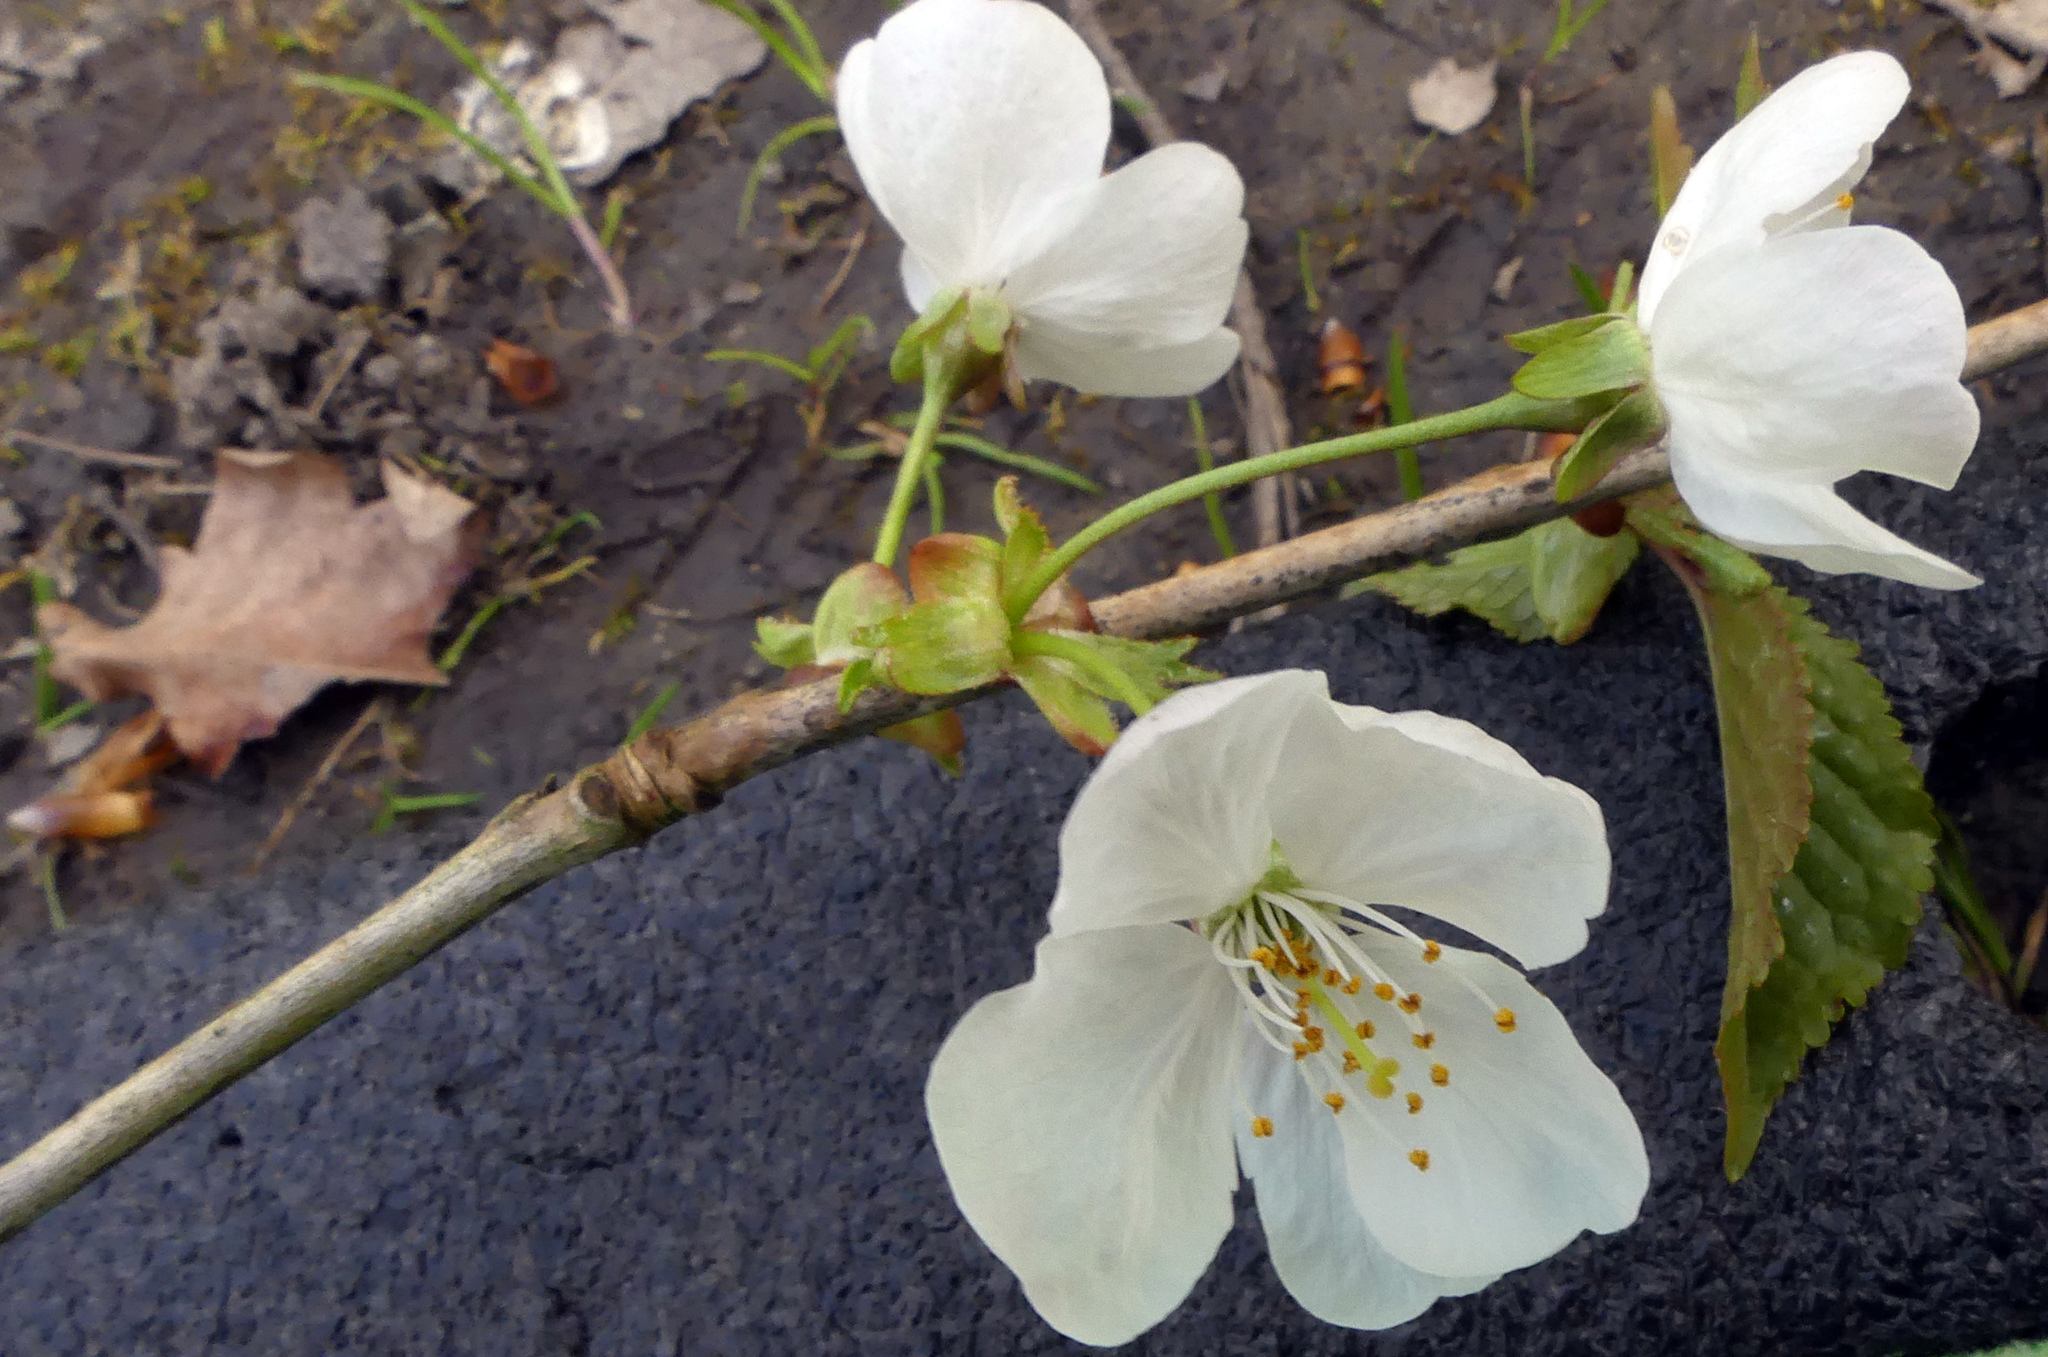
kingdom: Plantae
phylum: Tracheophyta
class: Magnoliopsida
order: Rosales
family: Rosaceae
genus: Prunus
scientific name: Prunus avium
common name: Sweet cherry
